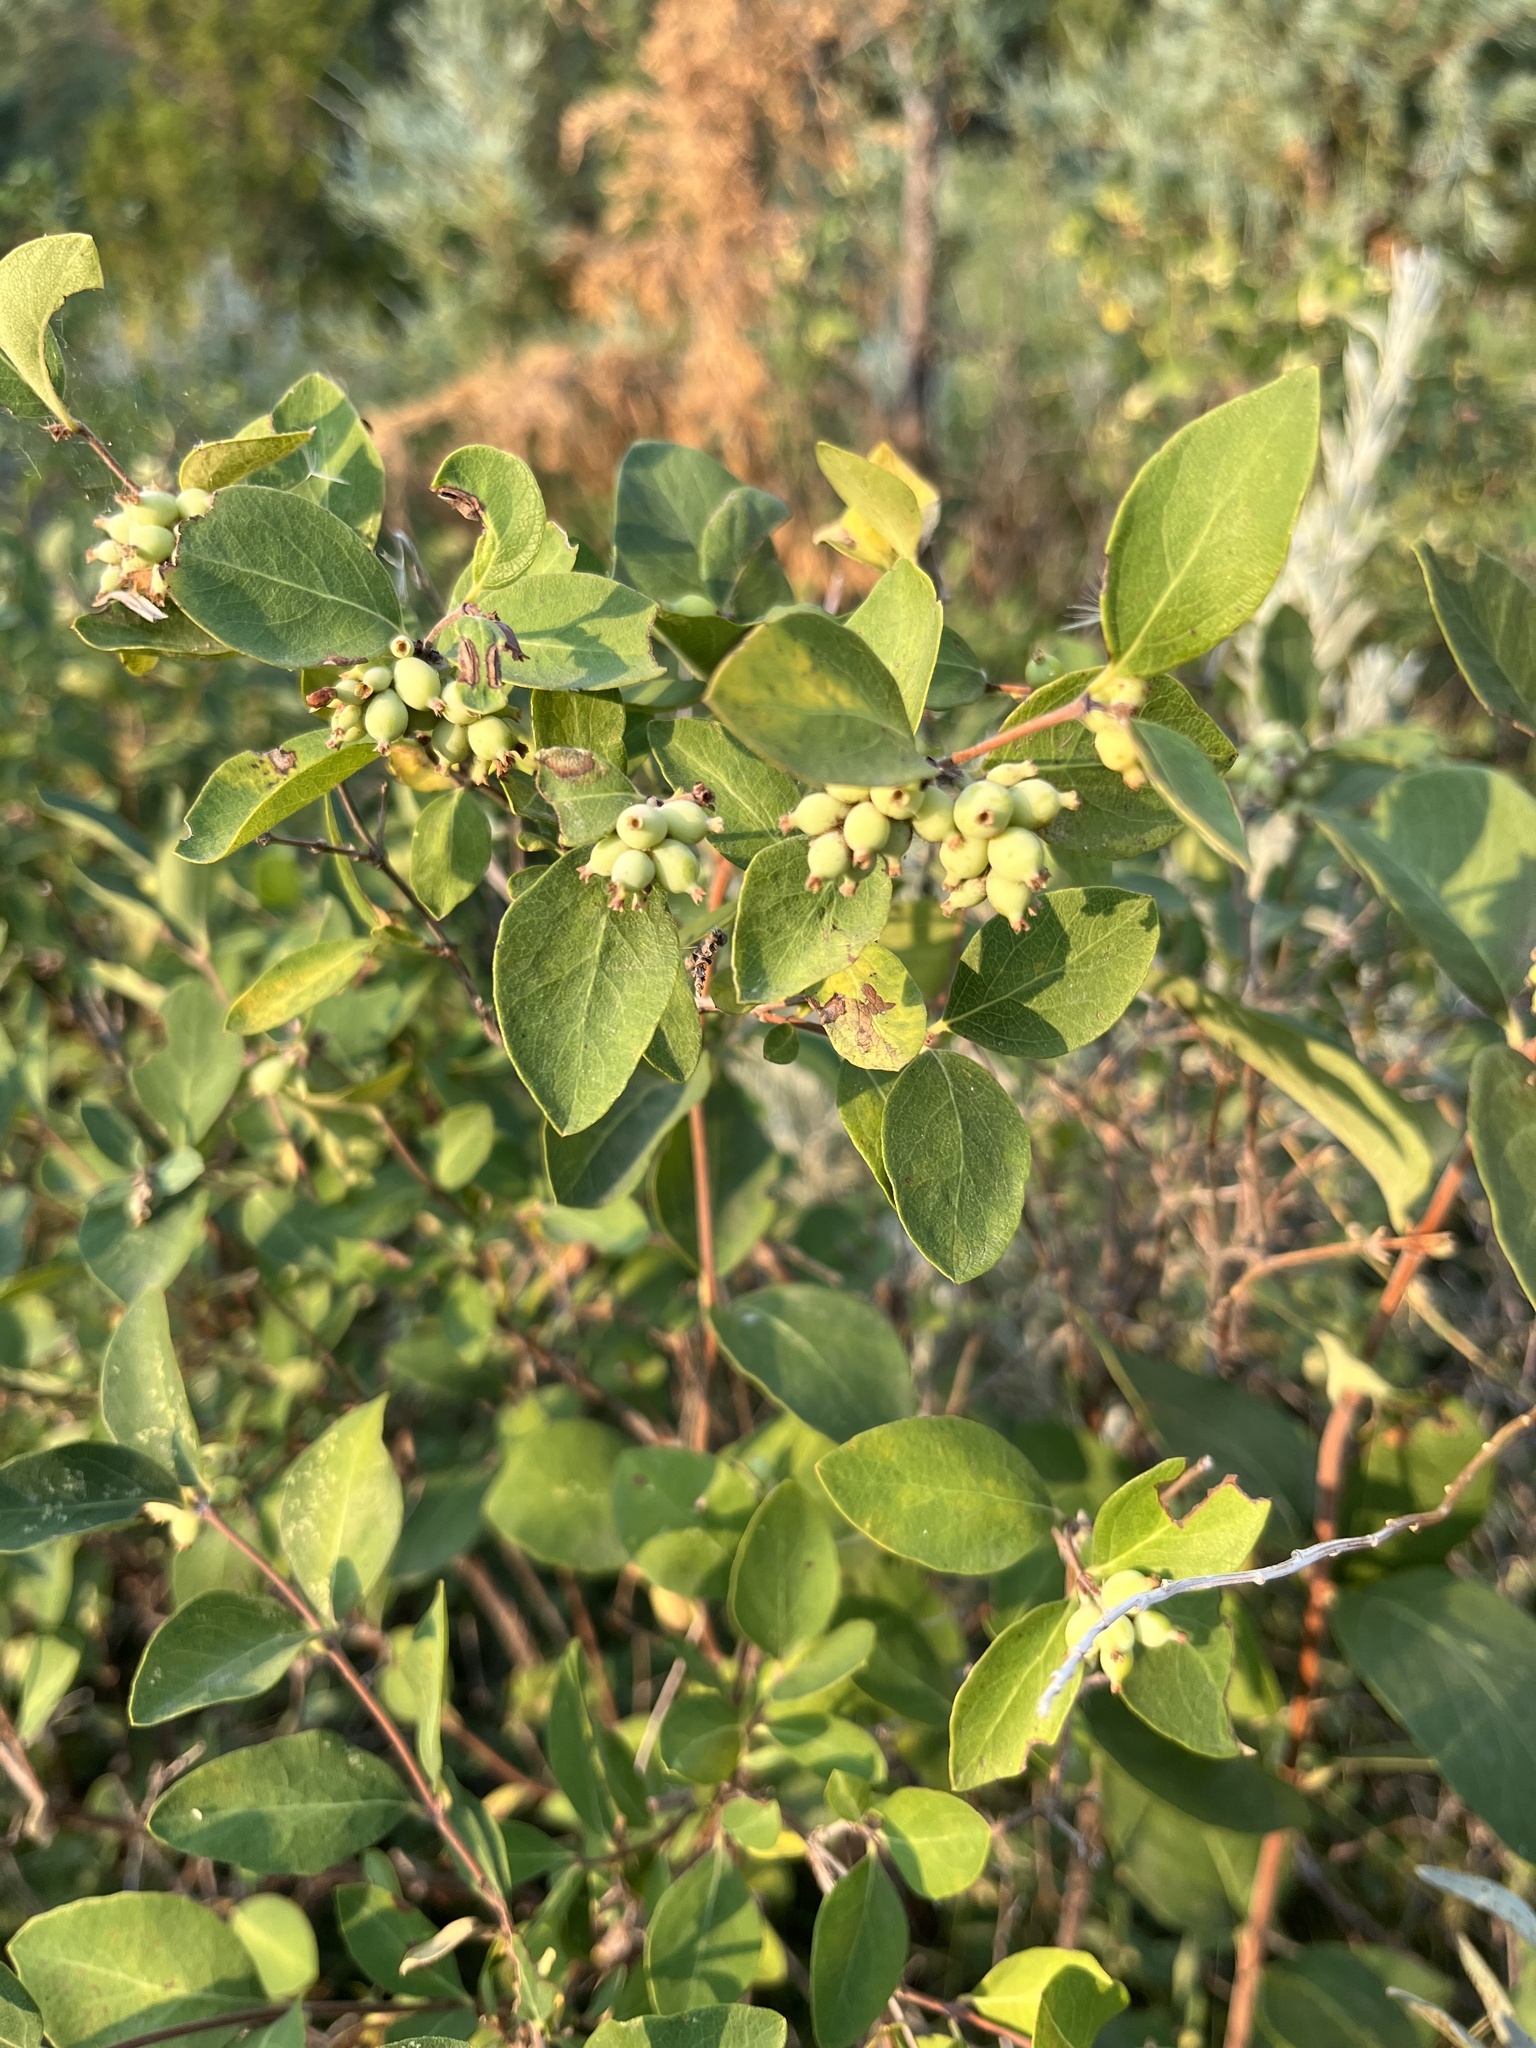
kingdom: Plantae
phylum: Tracheophyta
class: Magnoliopsida
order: Dipsacales
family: Caprifoliaceae
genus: Symphoricarpos
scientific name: Symphoricarpos occidentalis
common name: Wolfberry
